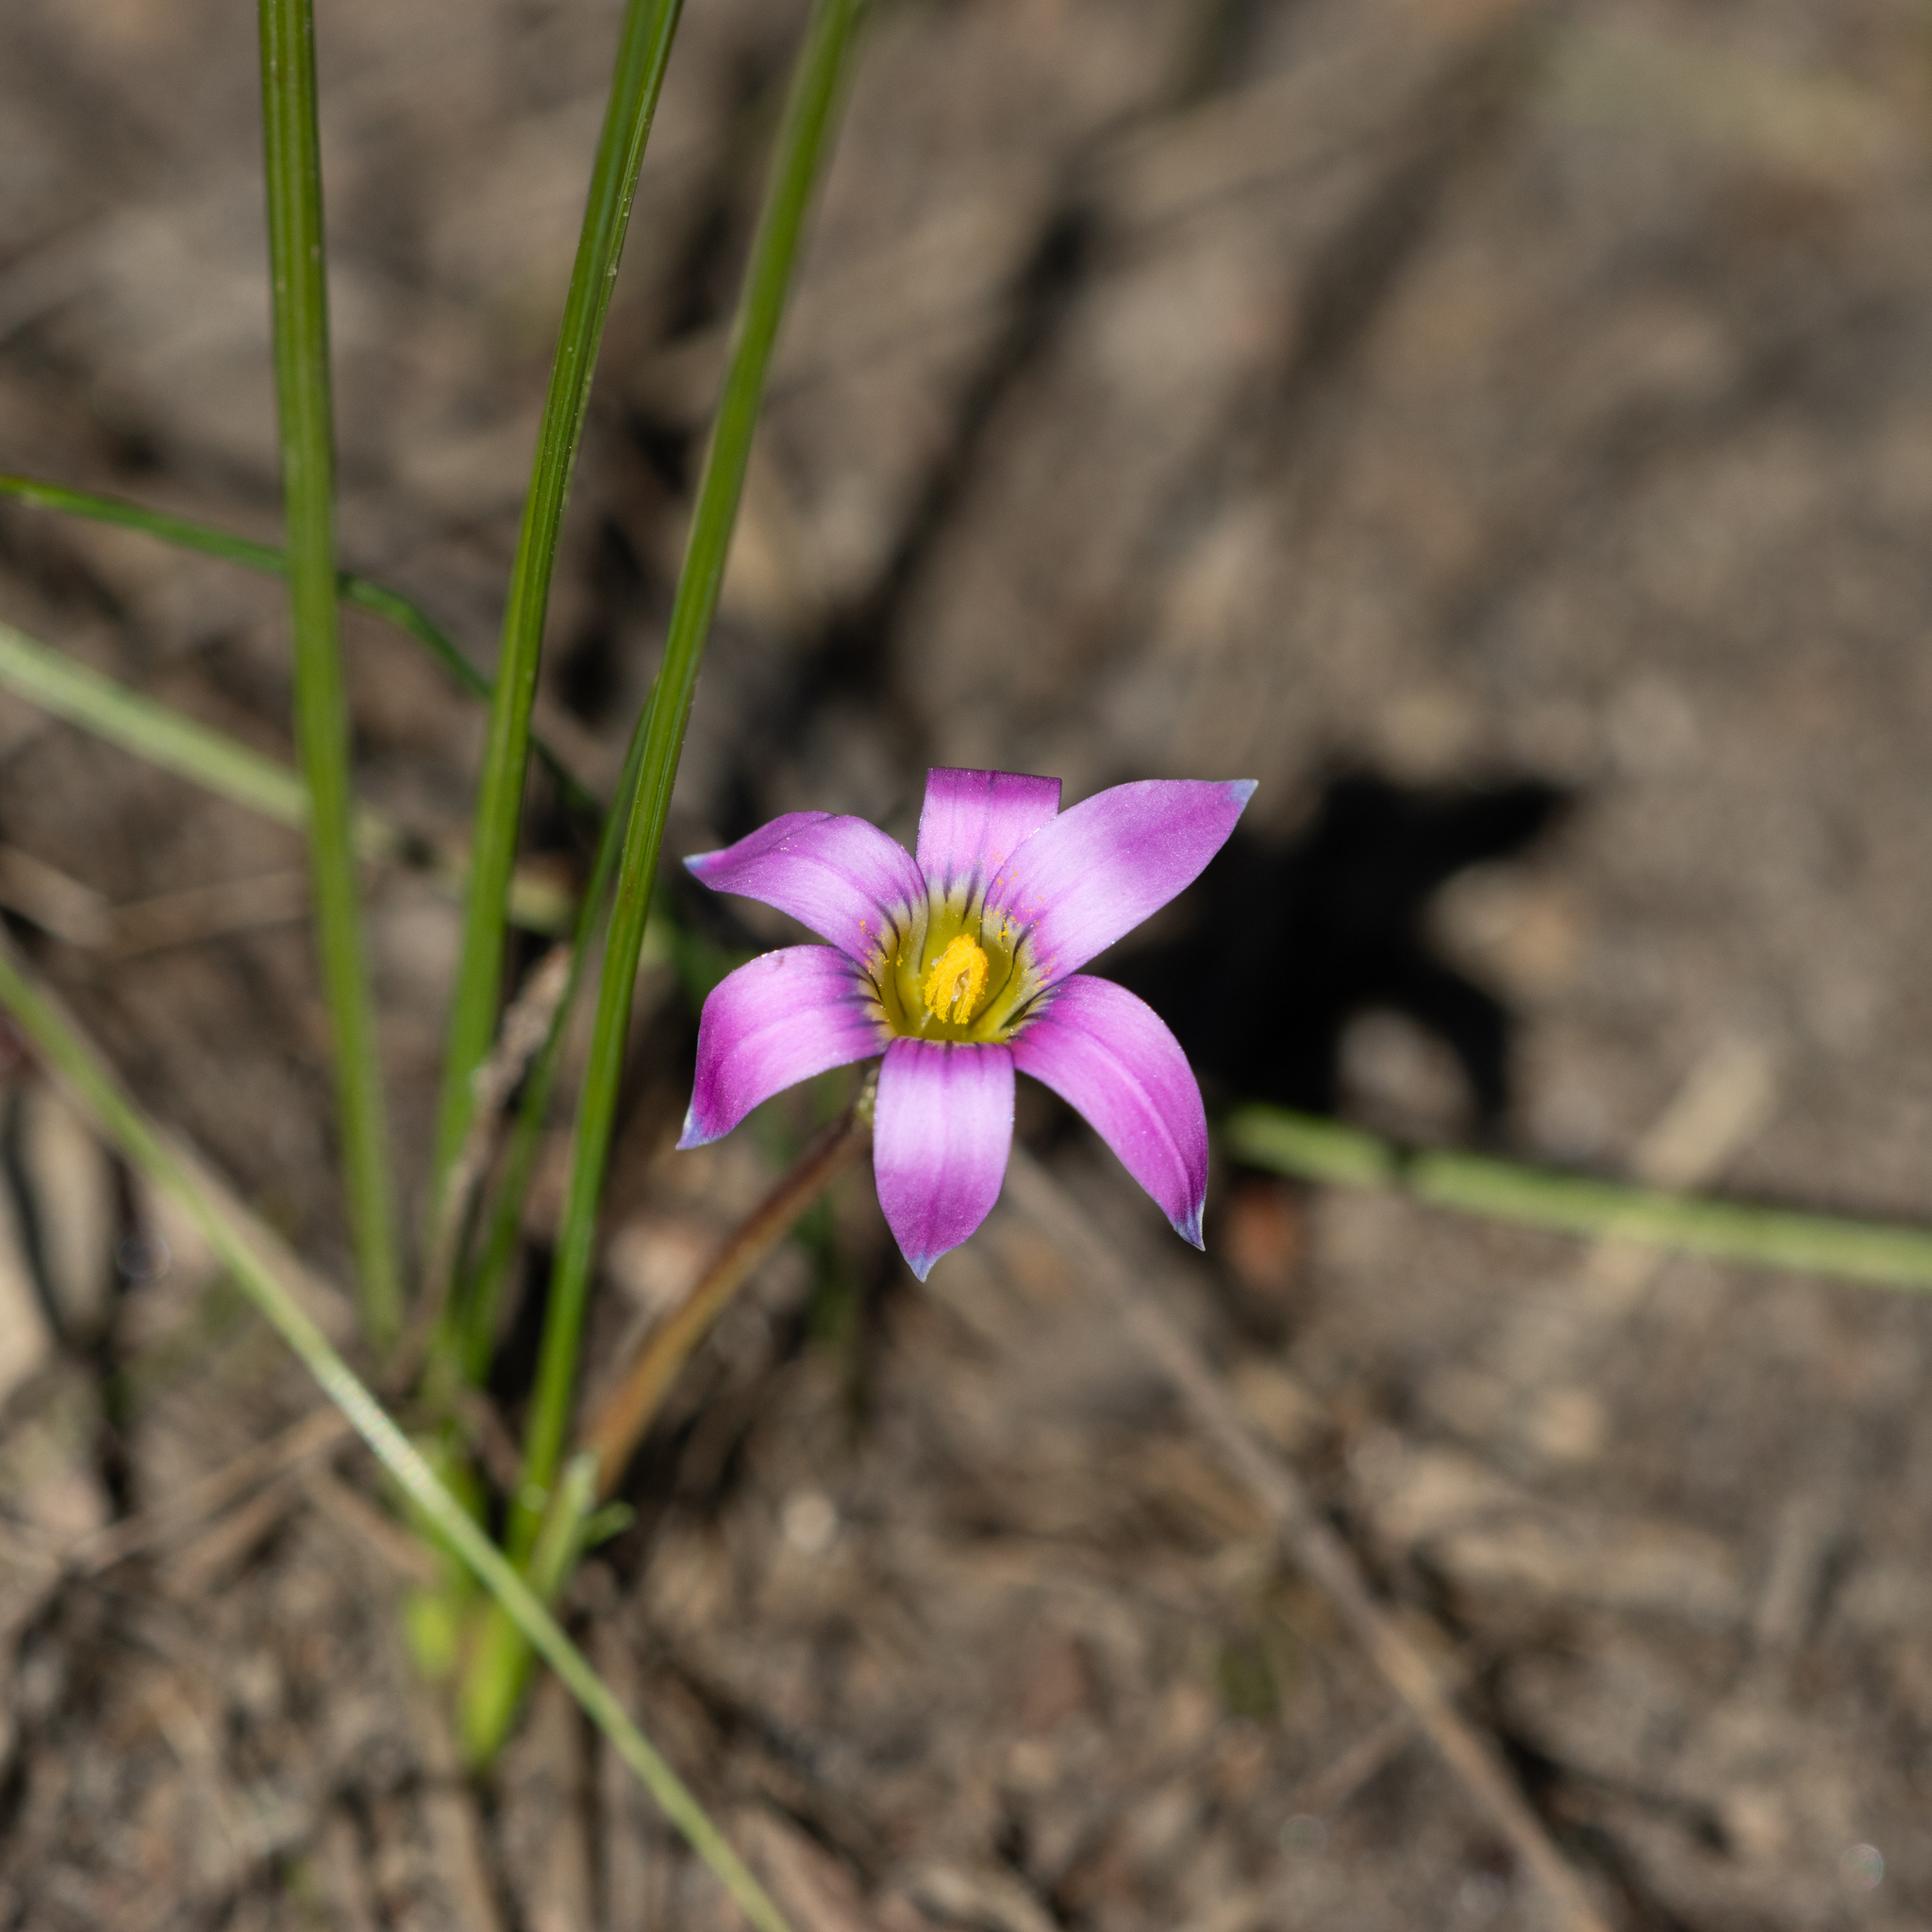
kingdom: Plantae
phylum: Tracheophyta
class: Liliopsida
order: Asparagales
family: Iridaceae
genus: Romulea
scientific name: Romulea rosea
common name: Oniongrass
